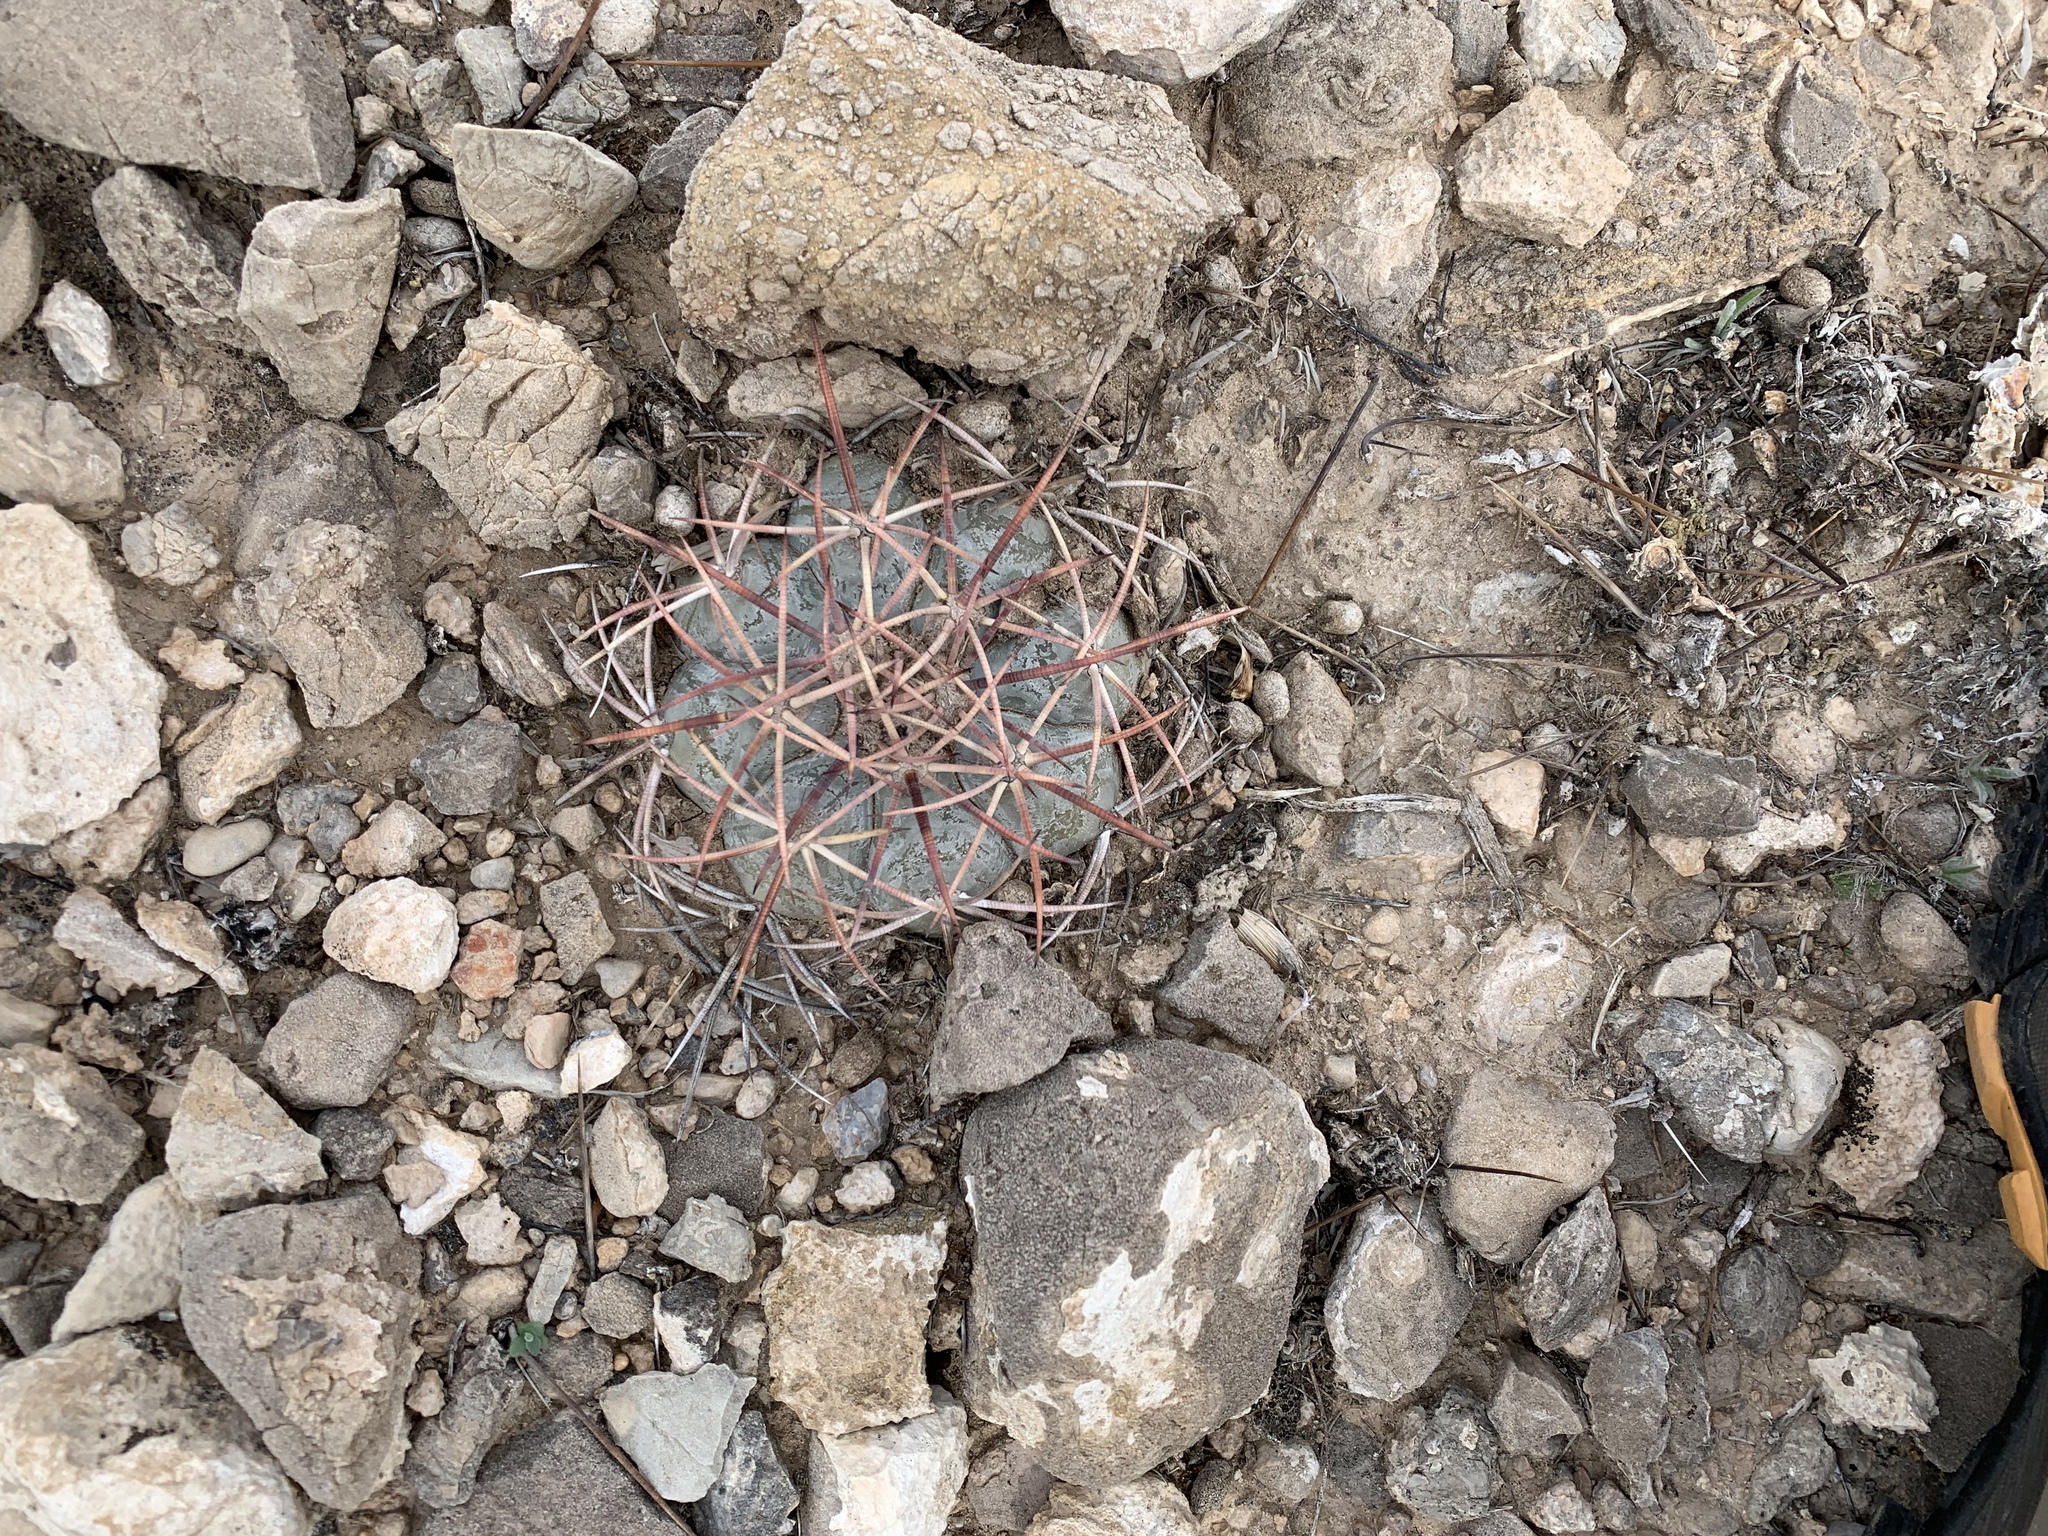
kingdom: Plantae
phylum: Tracheophyta
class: Magnoliopsida
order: Caryophyllales
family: Cactaceae
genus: Echinocactus
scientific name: Echinocactus horizonthalonius
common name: Devilshead
